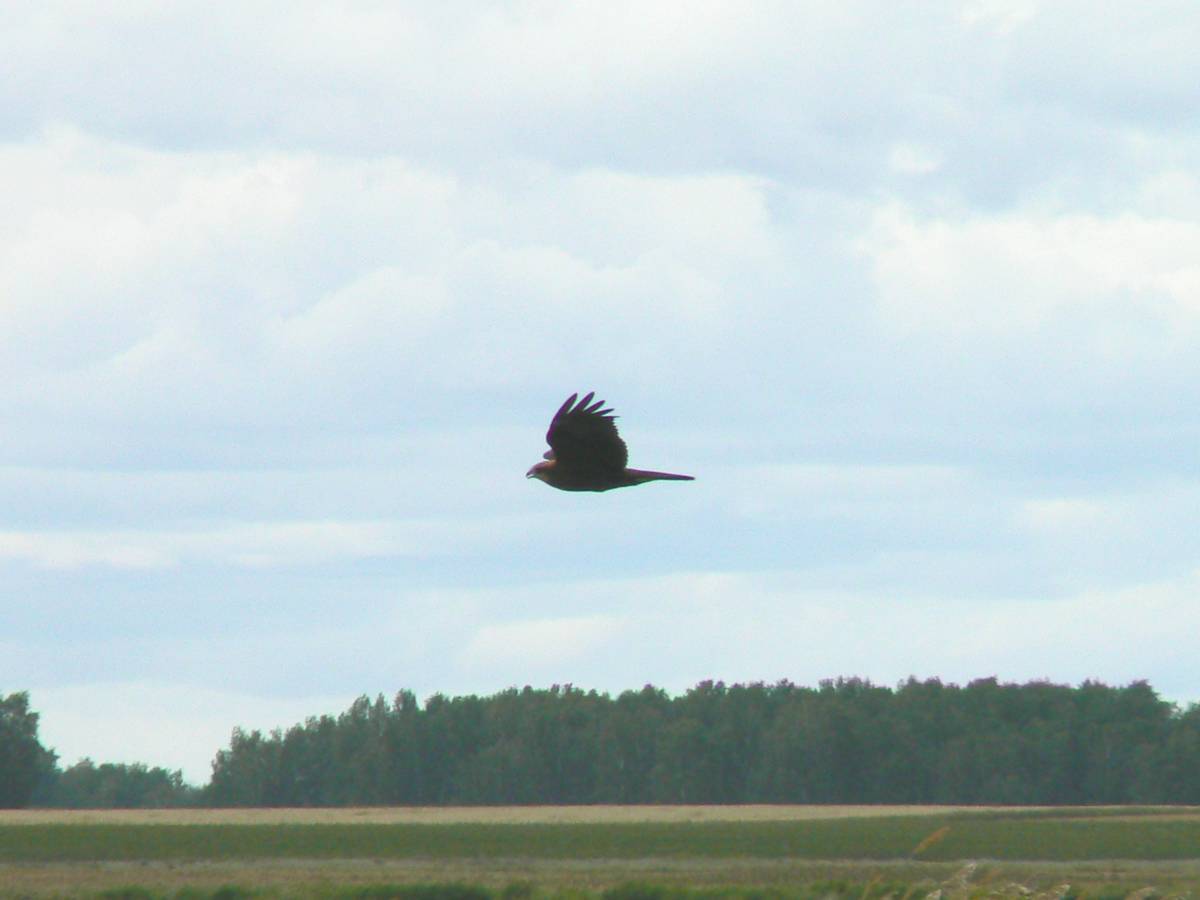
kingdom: Animalia
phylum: Chordata
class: Aves
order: Accipitriformes
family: Accipitridae
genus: Circus
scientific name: Circus aeruginosus
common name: Western marsh harrier
